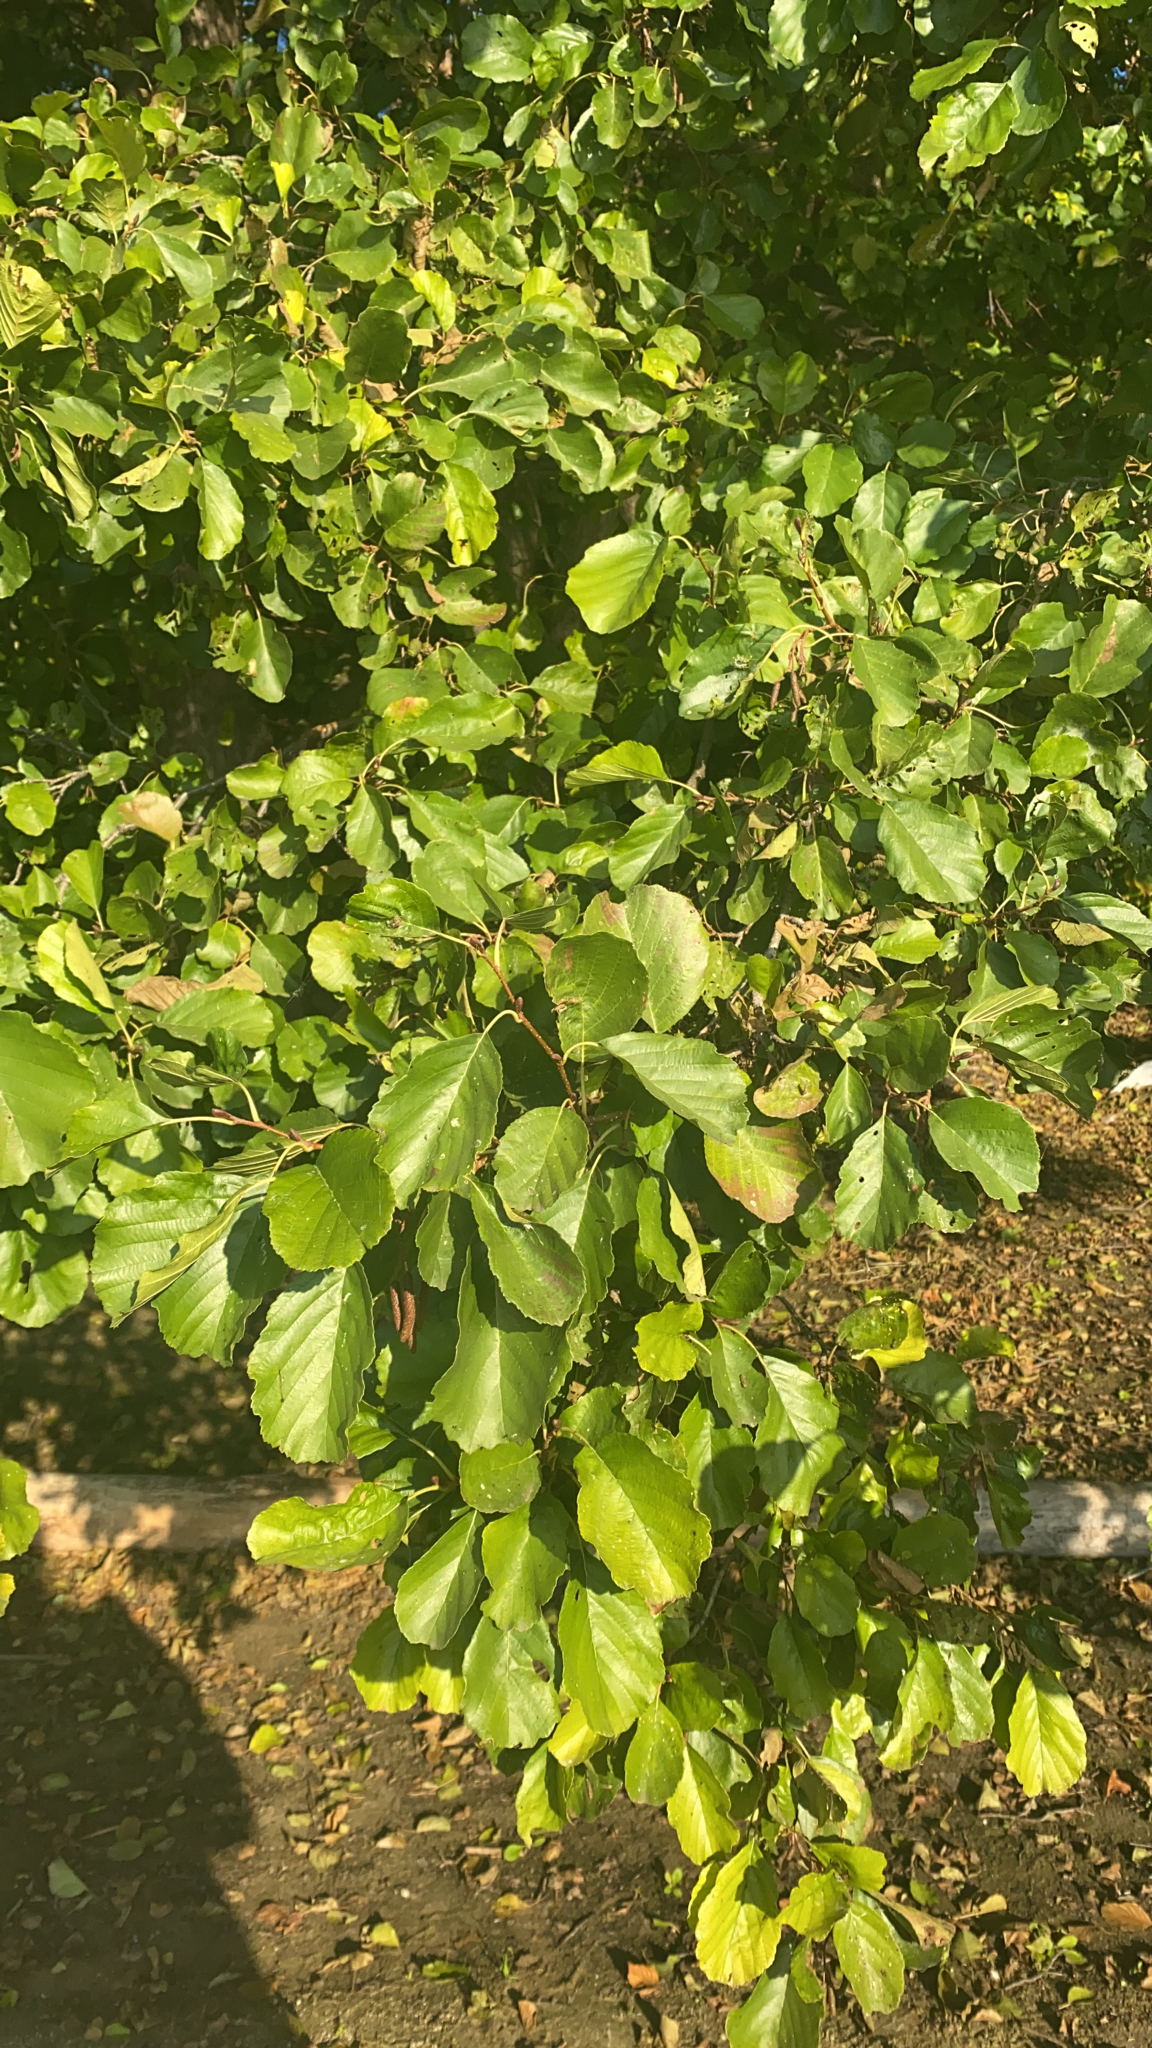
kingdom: Plantae
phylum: Tracheophyta
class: Magnoliopsida
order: Fagales
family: Betulaceae
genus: Alnus
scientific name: Alnus glutinosa
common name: Black alder
